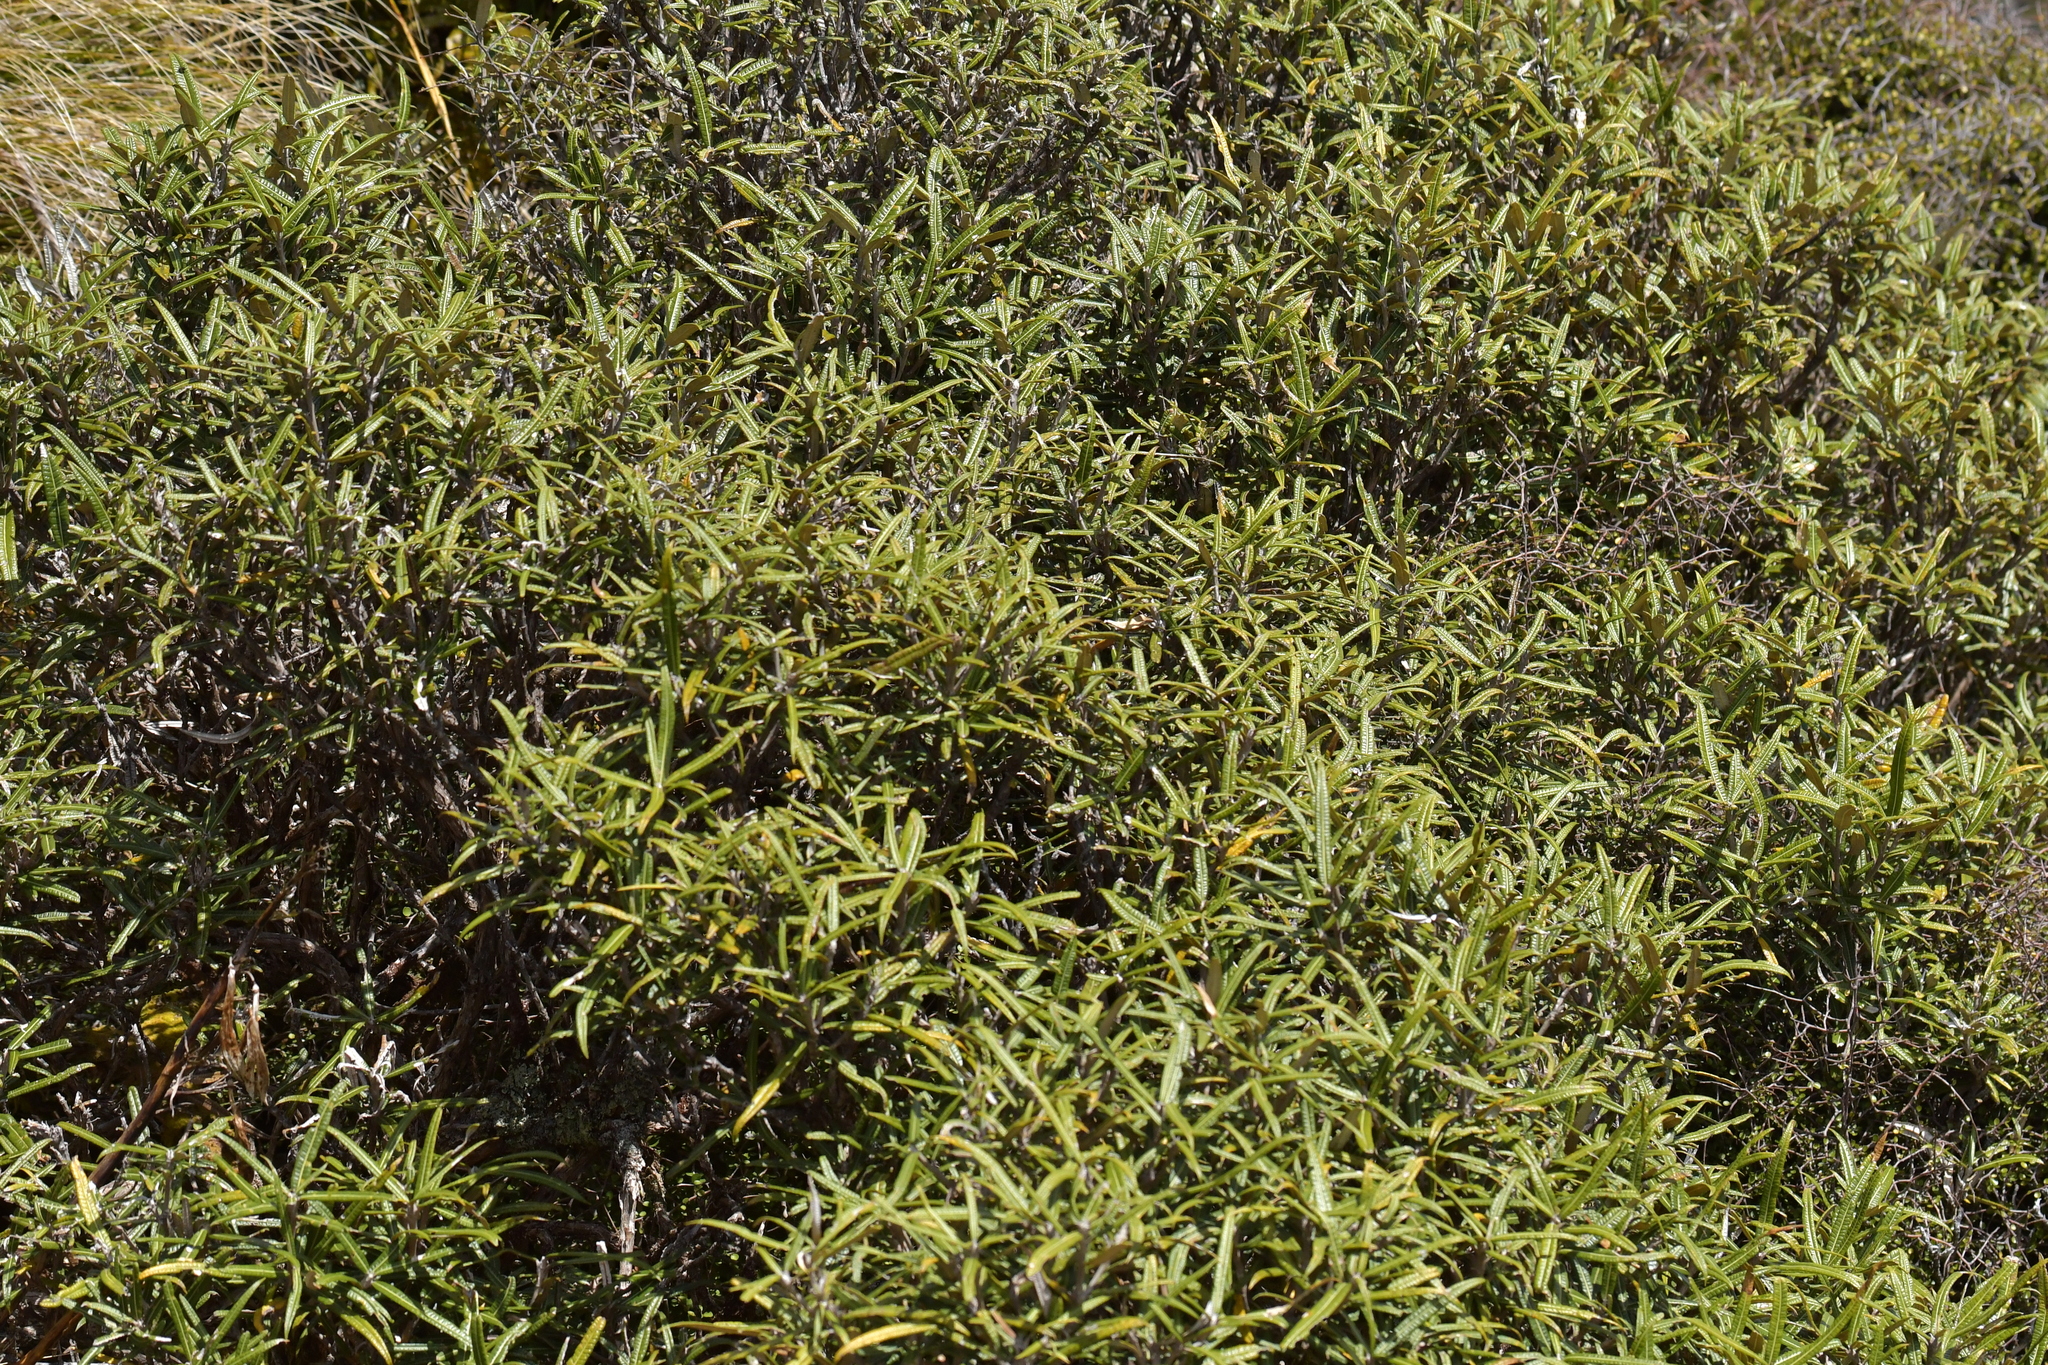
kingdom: Plantae
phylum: Tracheophyta
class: Magnoliopsida
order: Asterales
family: Asteraceae
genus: Olearia
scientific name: Olearia lacunosa
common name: Lancewood tree daisy
